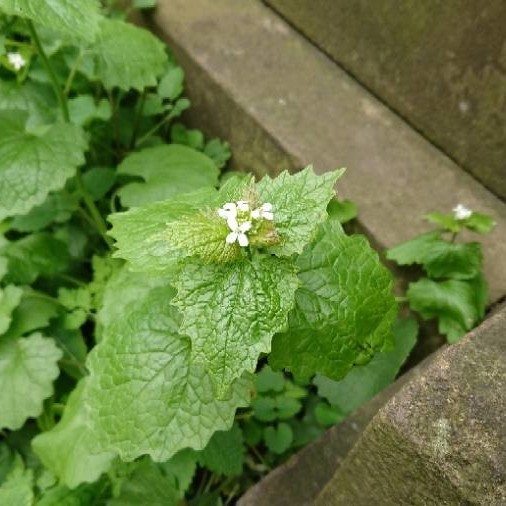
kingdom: Plantae
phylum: Tracheophyta
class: Magnoliopsida
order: Brassicales
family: Brassicaceae
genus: Alliaria
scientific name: Alliaria petiolata
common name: Garlic mustard
